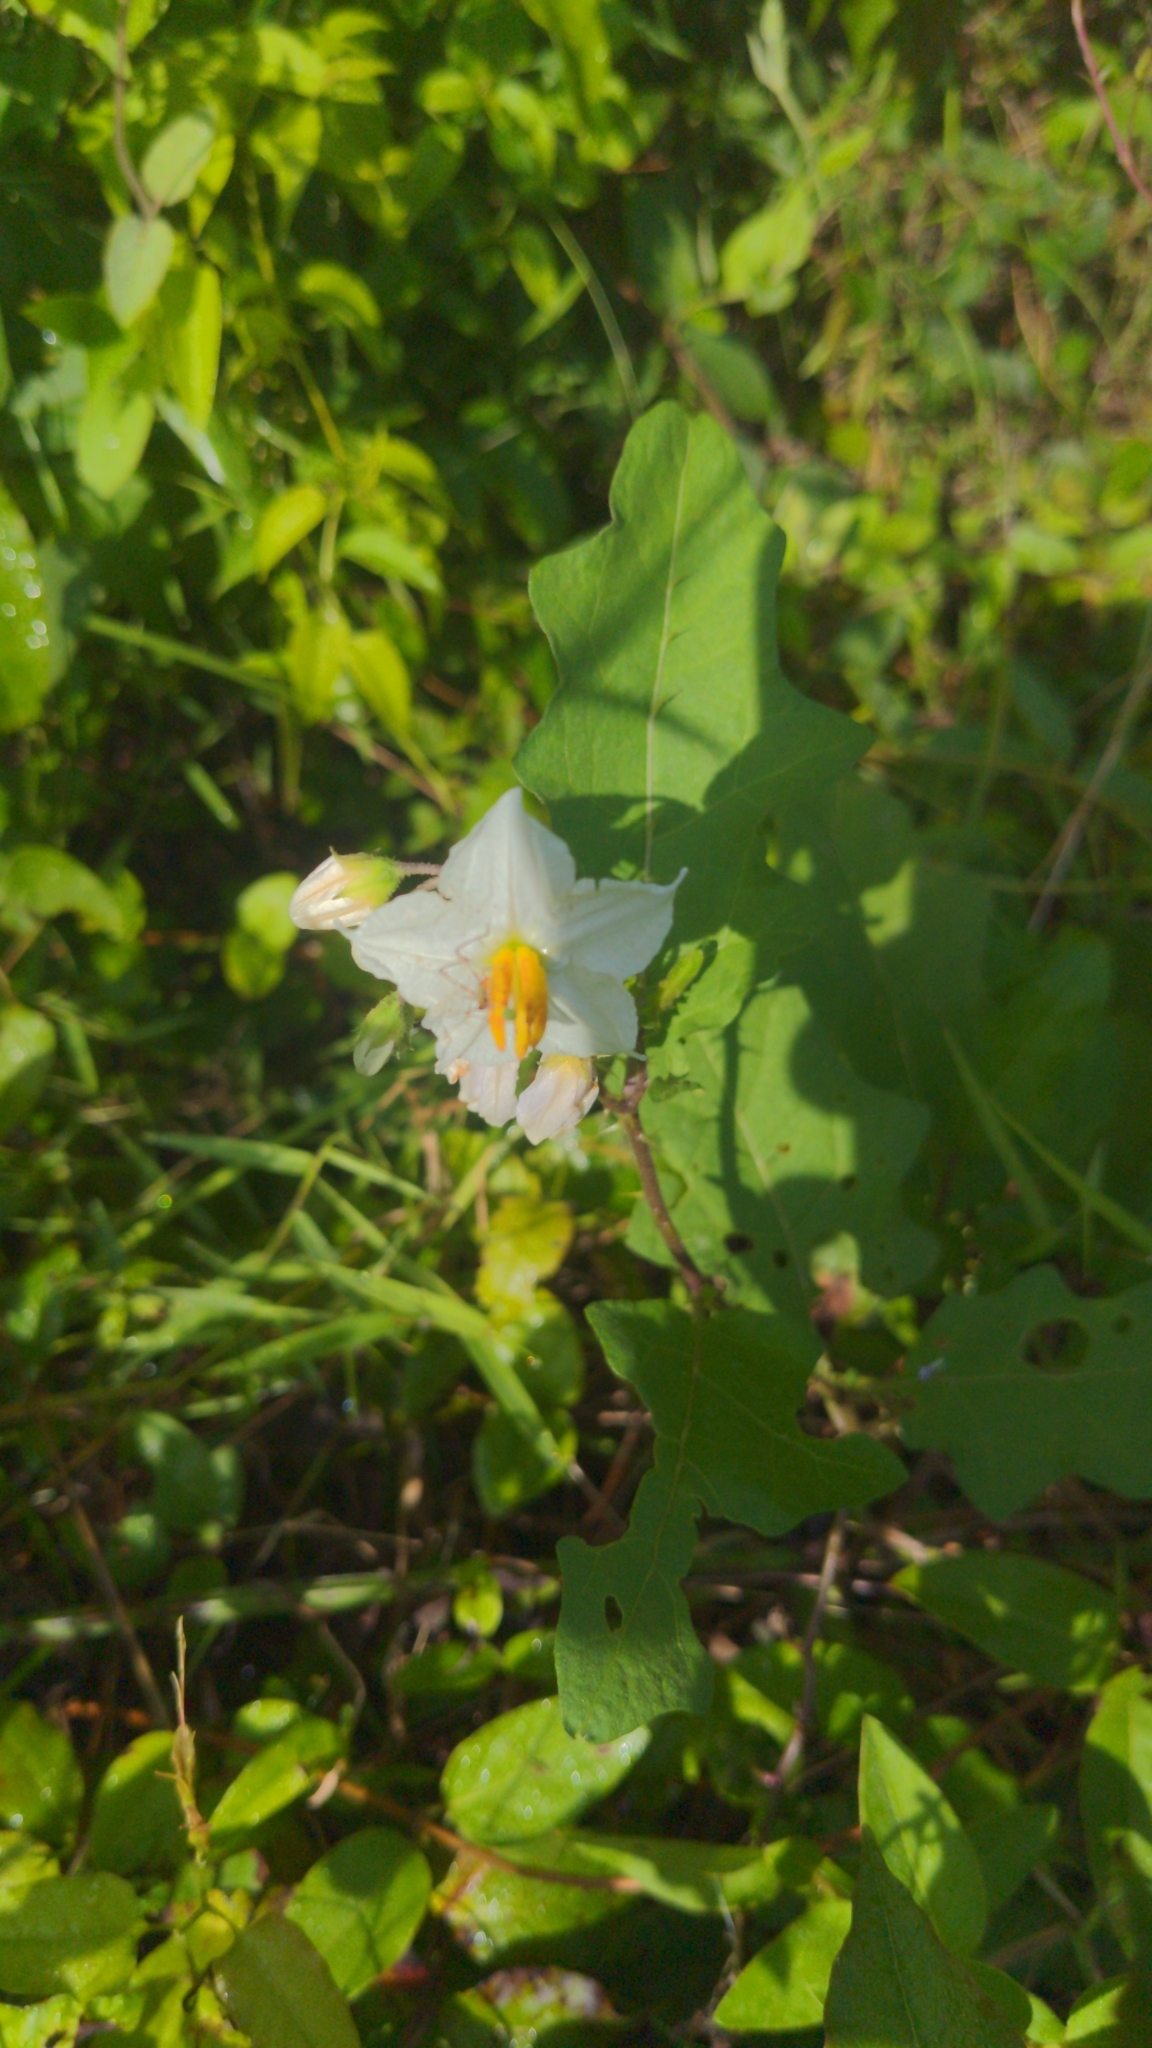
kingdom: Plantae
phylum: Tracheophyta
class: Magnoliopsida
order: Solanales
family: Solanaceae
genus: Solanum
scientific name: Solanum carolinense
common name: Horse-nettle
